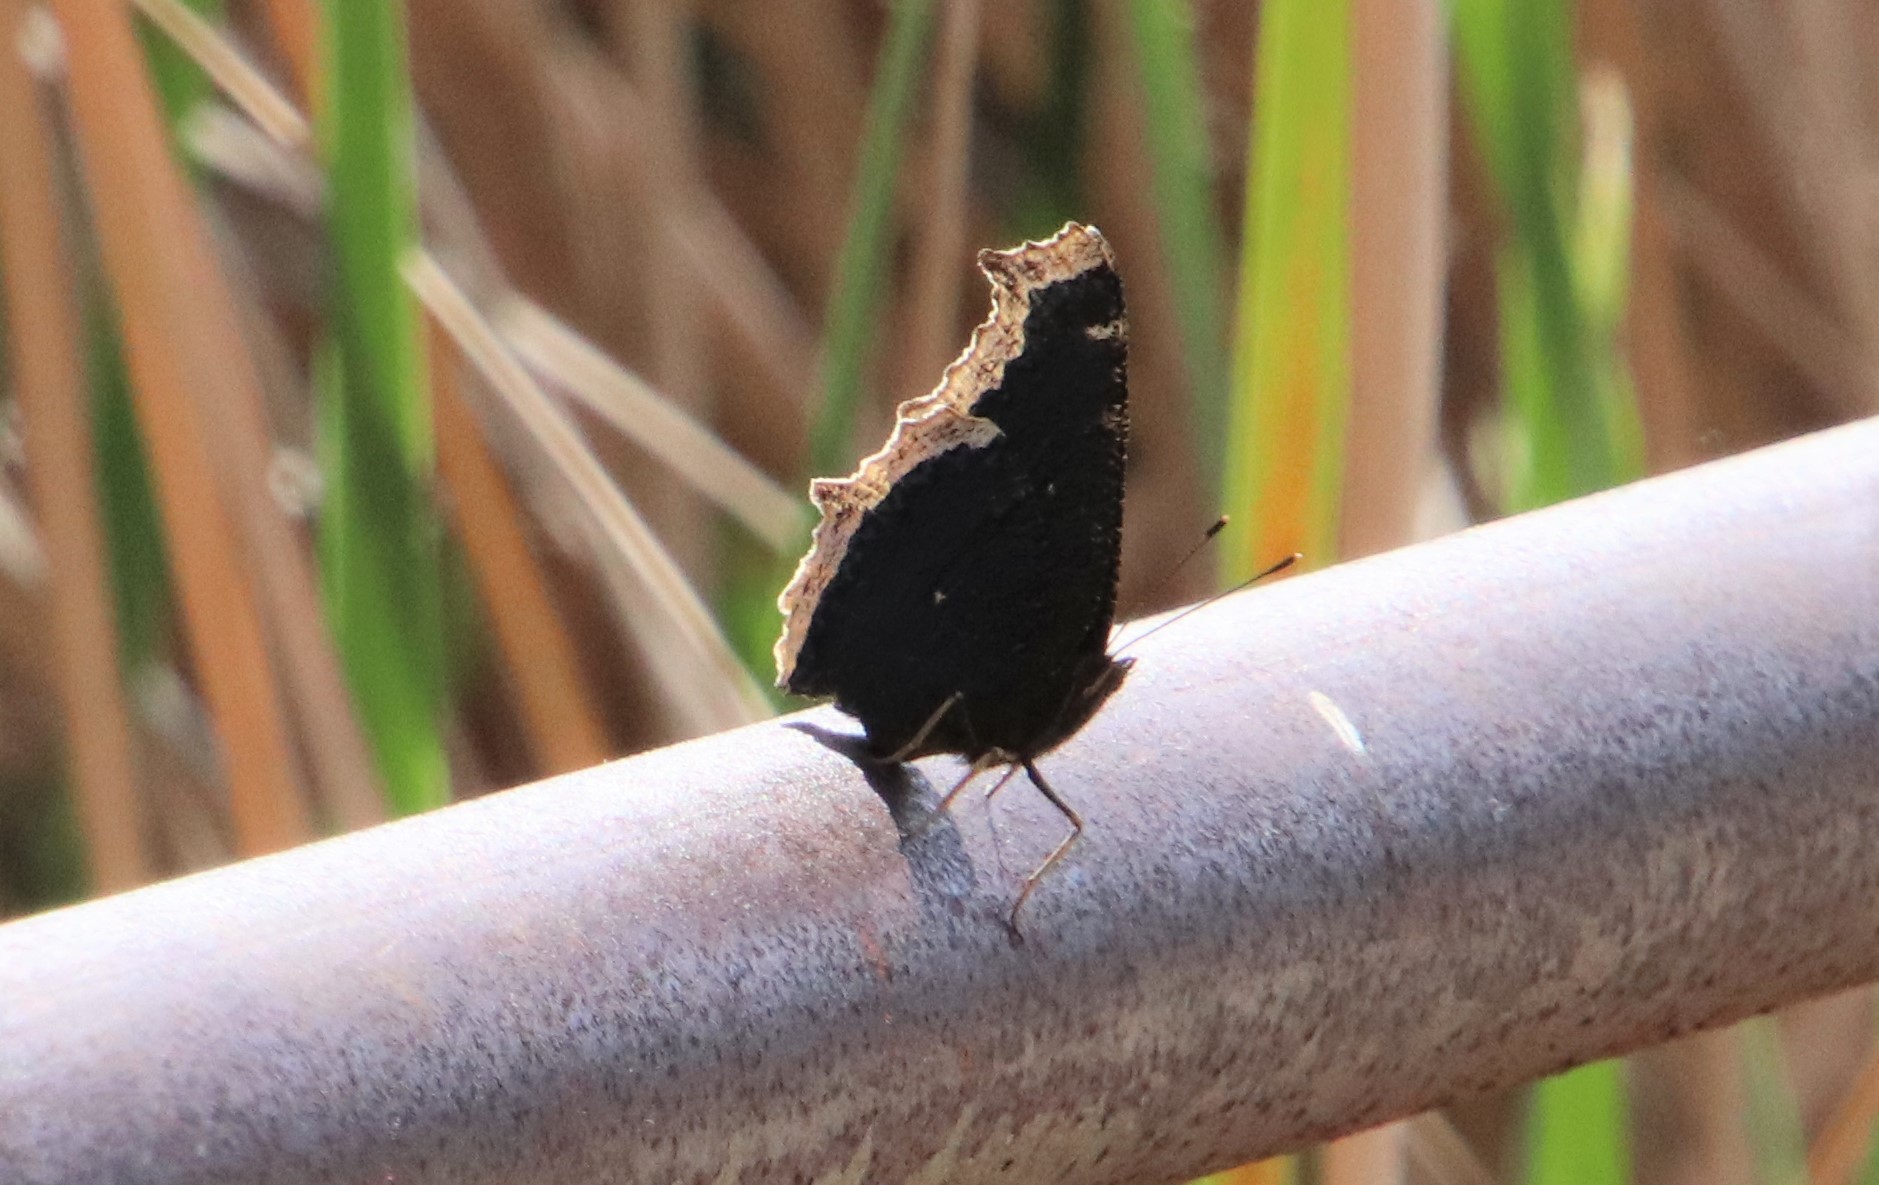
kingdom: Animalia
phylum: Arthropoda
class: Insecta
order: Lepidoptera
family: Nymphalidae
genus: Nymphalis
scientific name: Nymphalis antiopa
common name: Camberwell beauty
